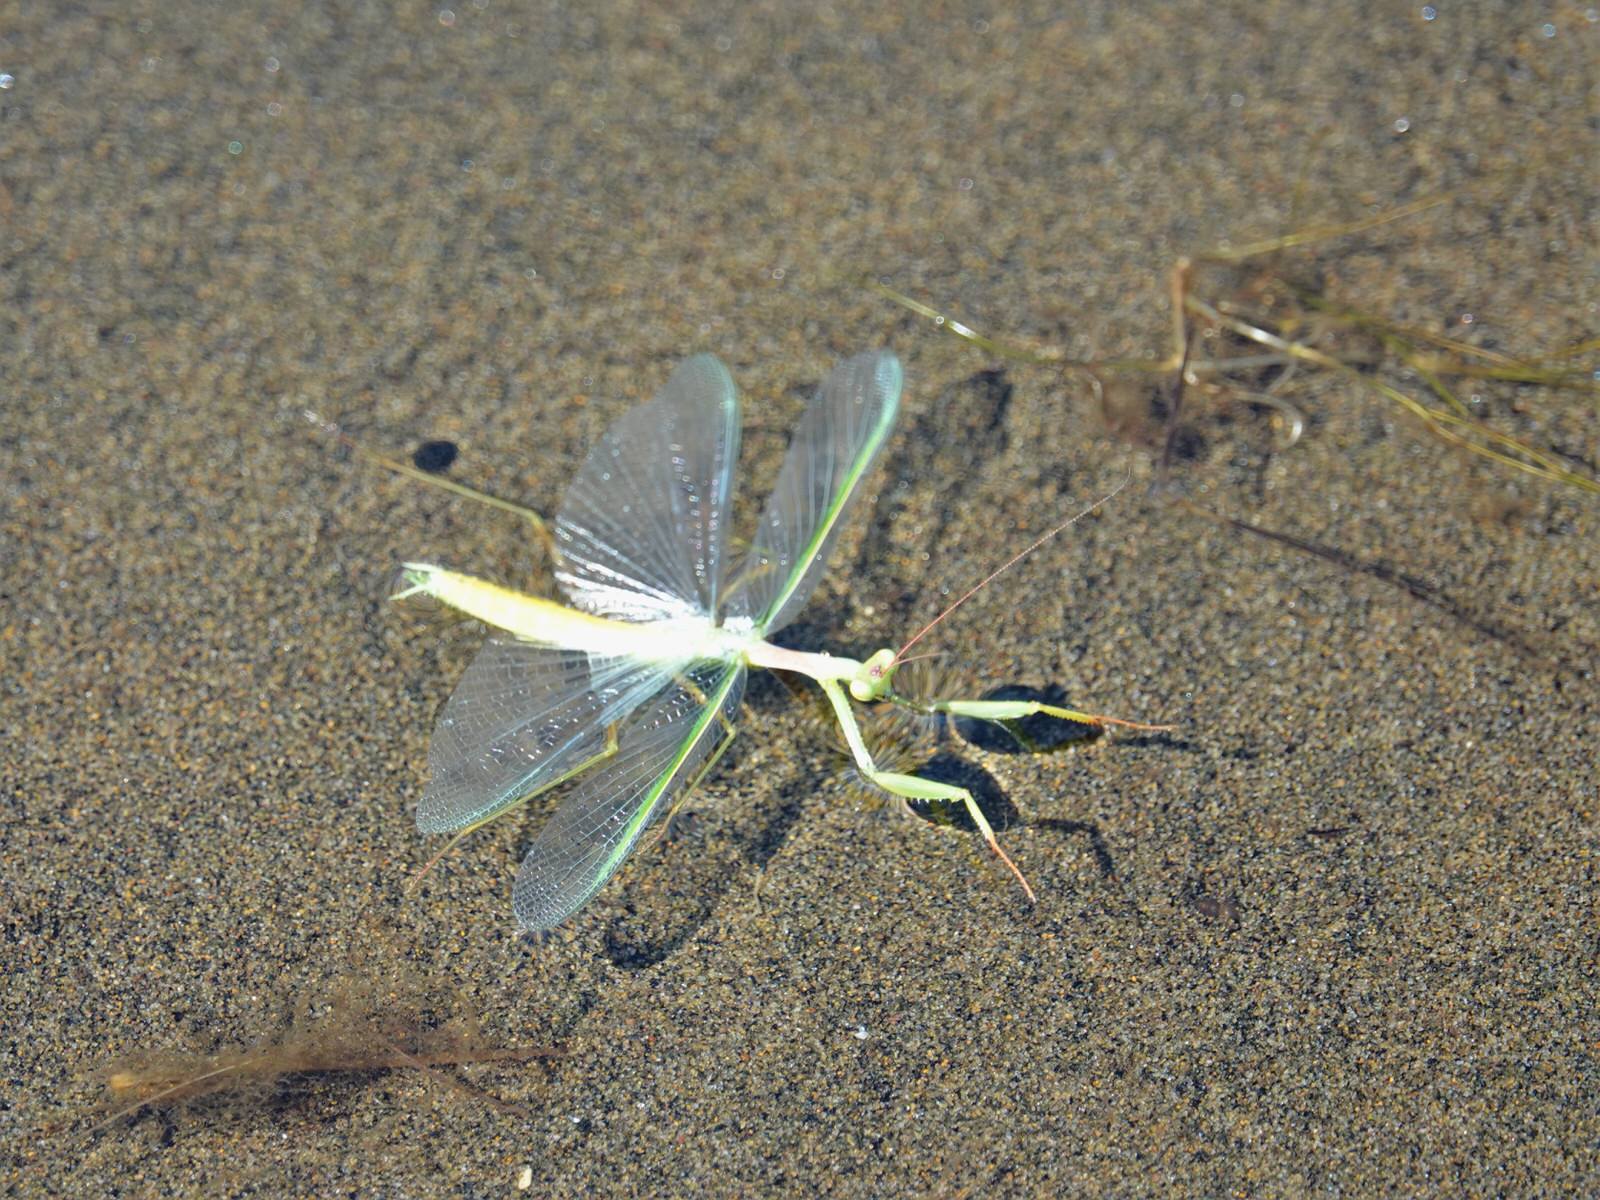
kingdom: Animalia
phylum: Arthropoda
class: Insecta
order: Mantodea
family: Miomantidae
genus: Miomantis
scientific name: Miomantis caffra
